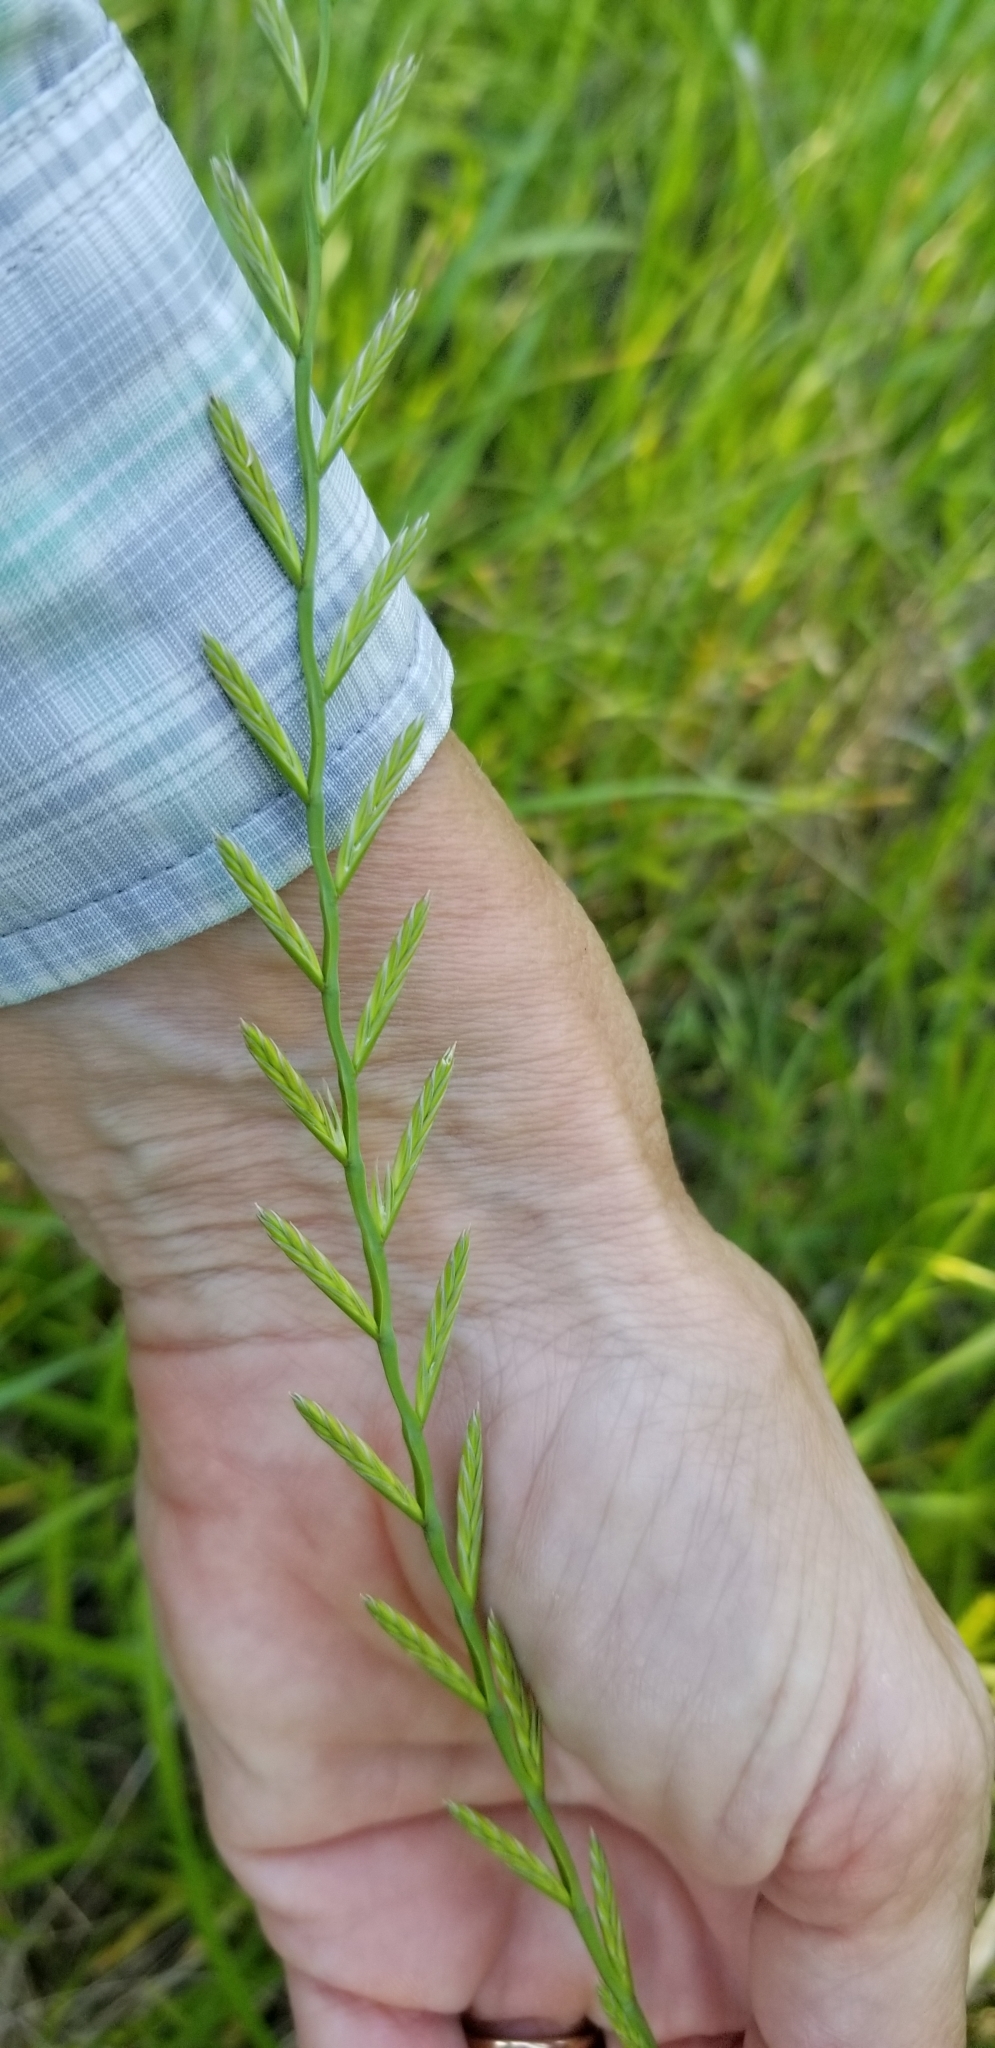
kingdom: Plantae
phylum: Tracheophyta
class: Liliopsida
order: Poales
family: Poaceae
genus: Lolium
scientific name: Lolium perenne
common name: Perennial ryegrass
